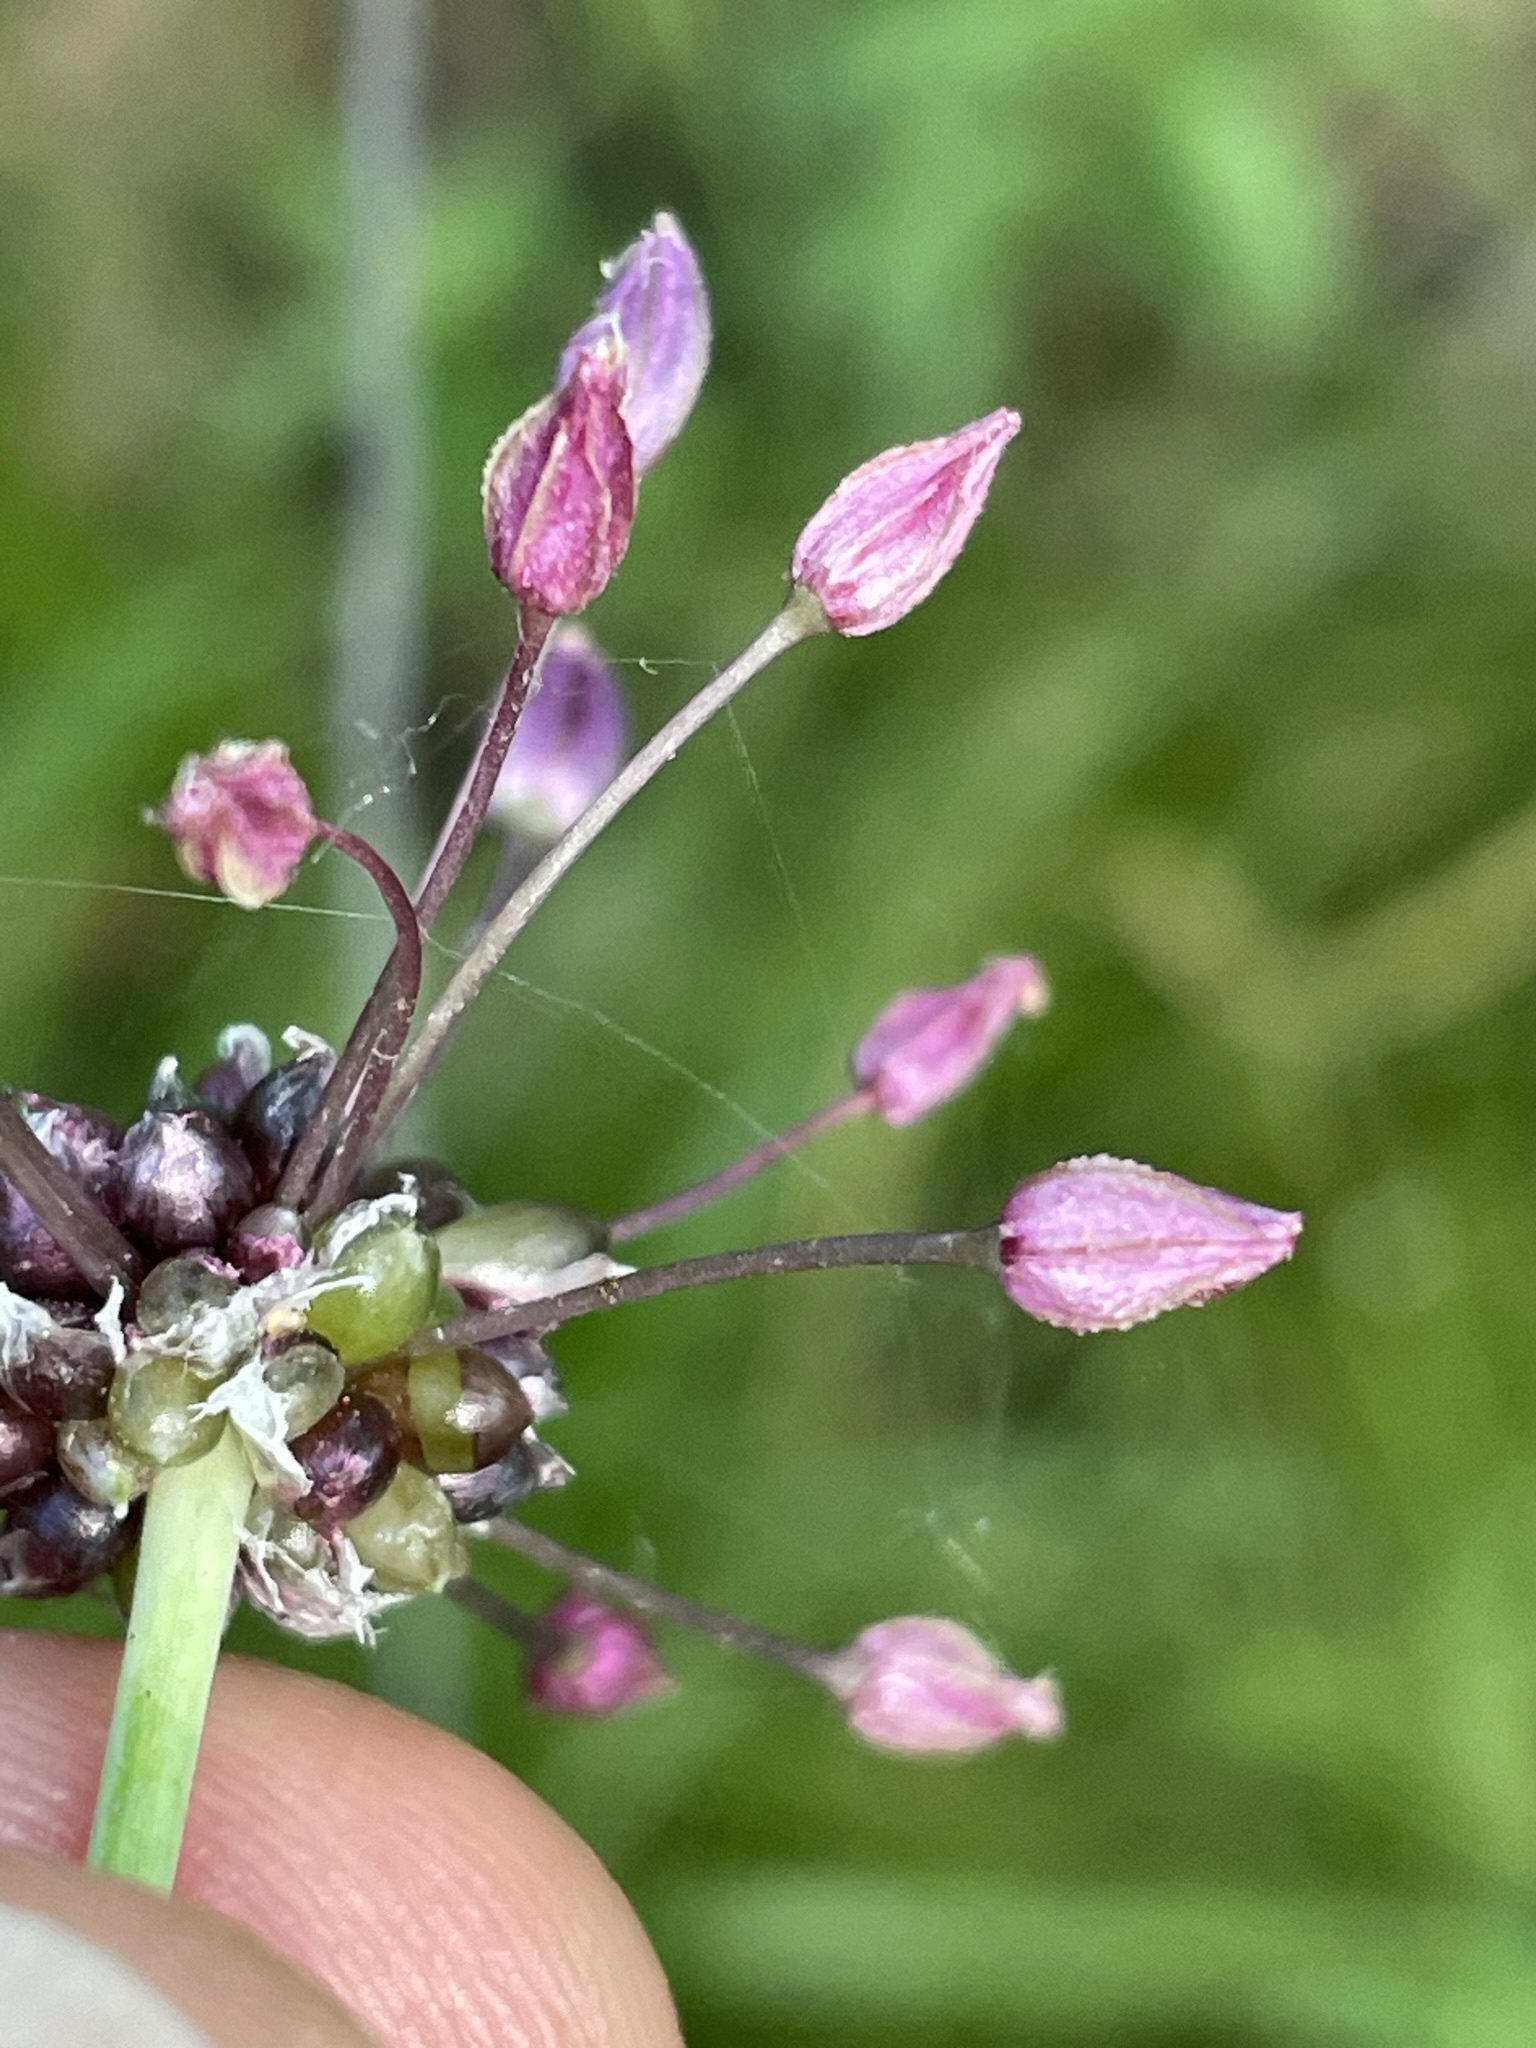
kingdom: Plantae
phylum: Tracheophyta
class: Liliopsida
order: Asparagales
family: Amaryllidaceae
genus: Allium
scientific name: Allium scorodoprasum
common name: Sand leek
